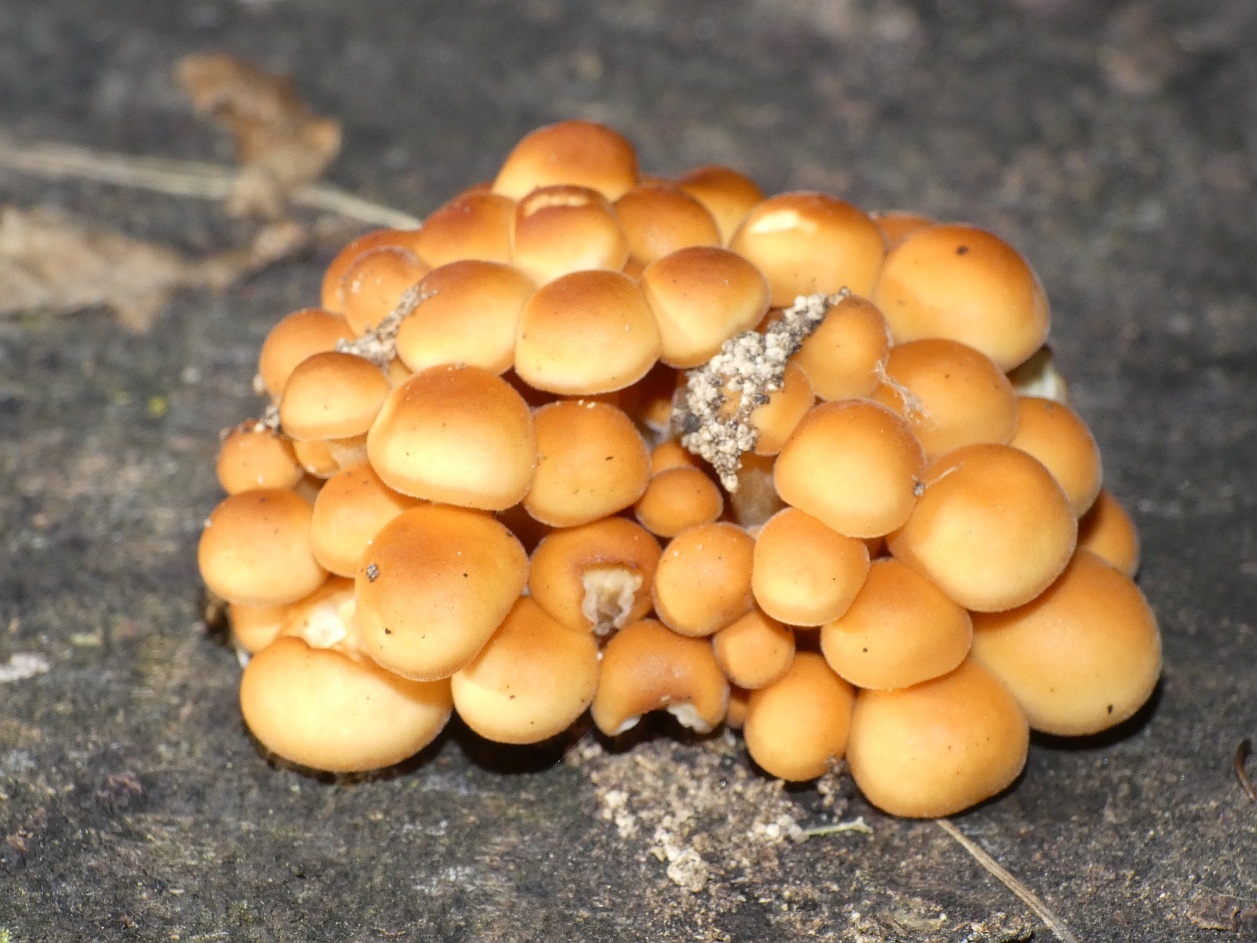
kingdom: Fungi
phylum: Basidiomycota
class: Agaricomycetes
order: Agaricales
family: Physalacriaceae
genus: Flammulina
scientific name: Flammulina
